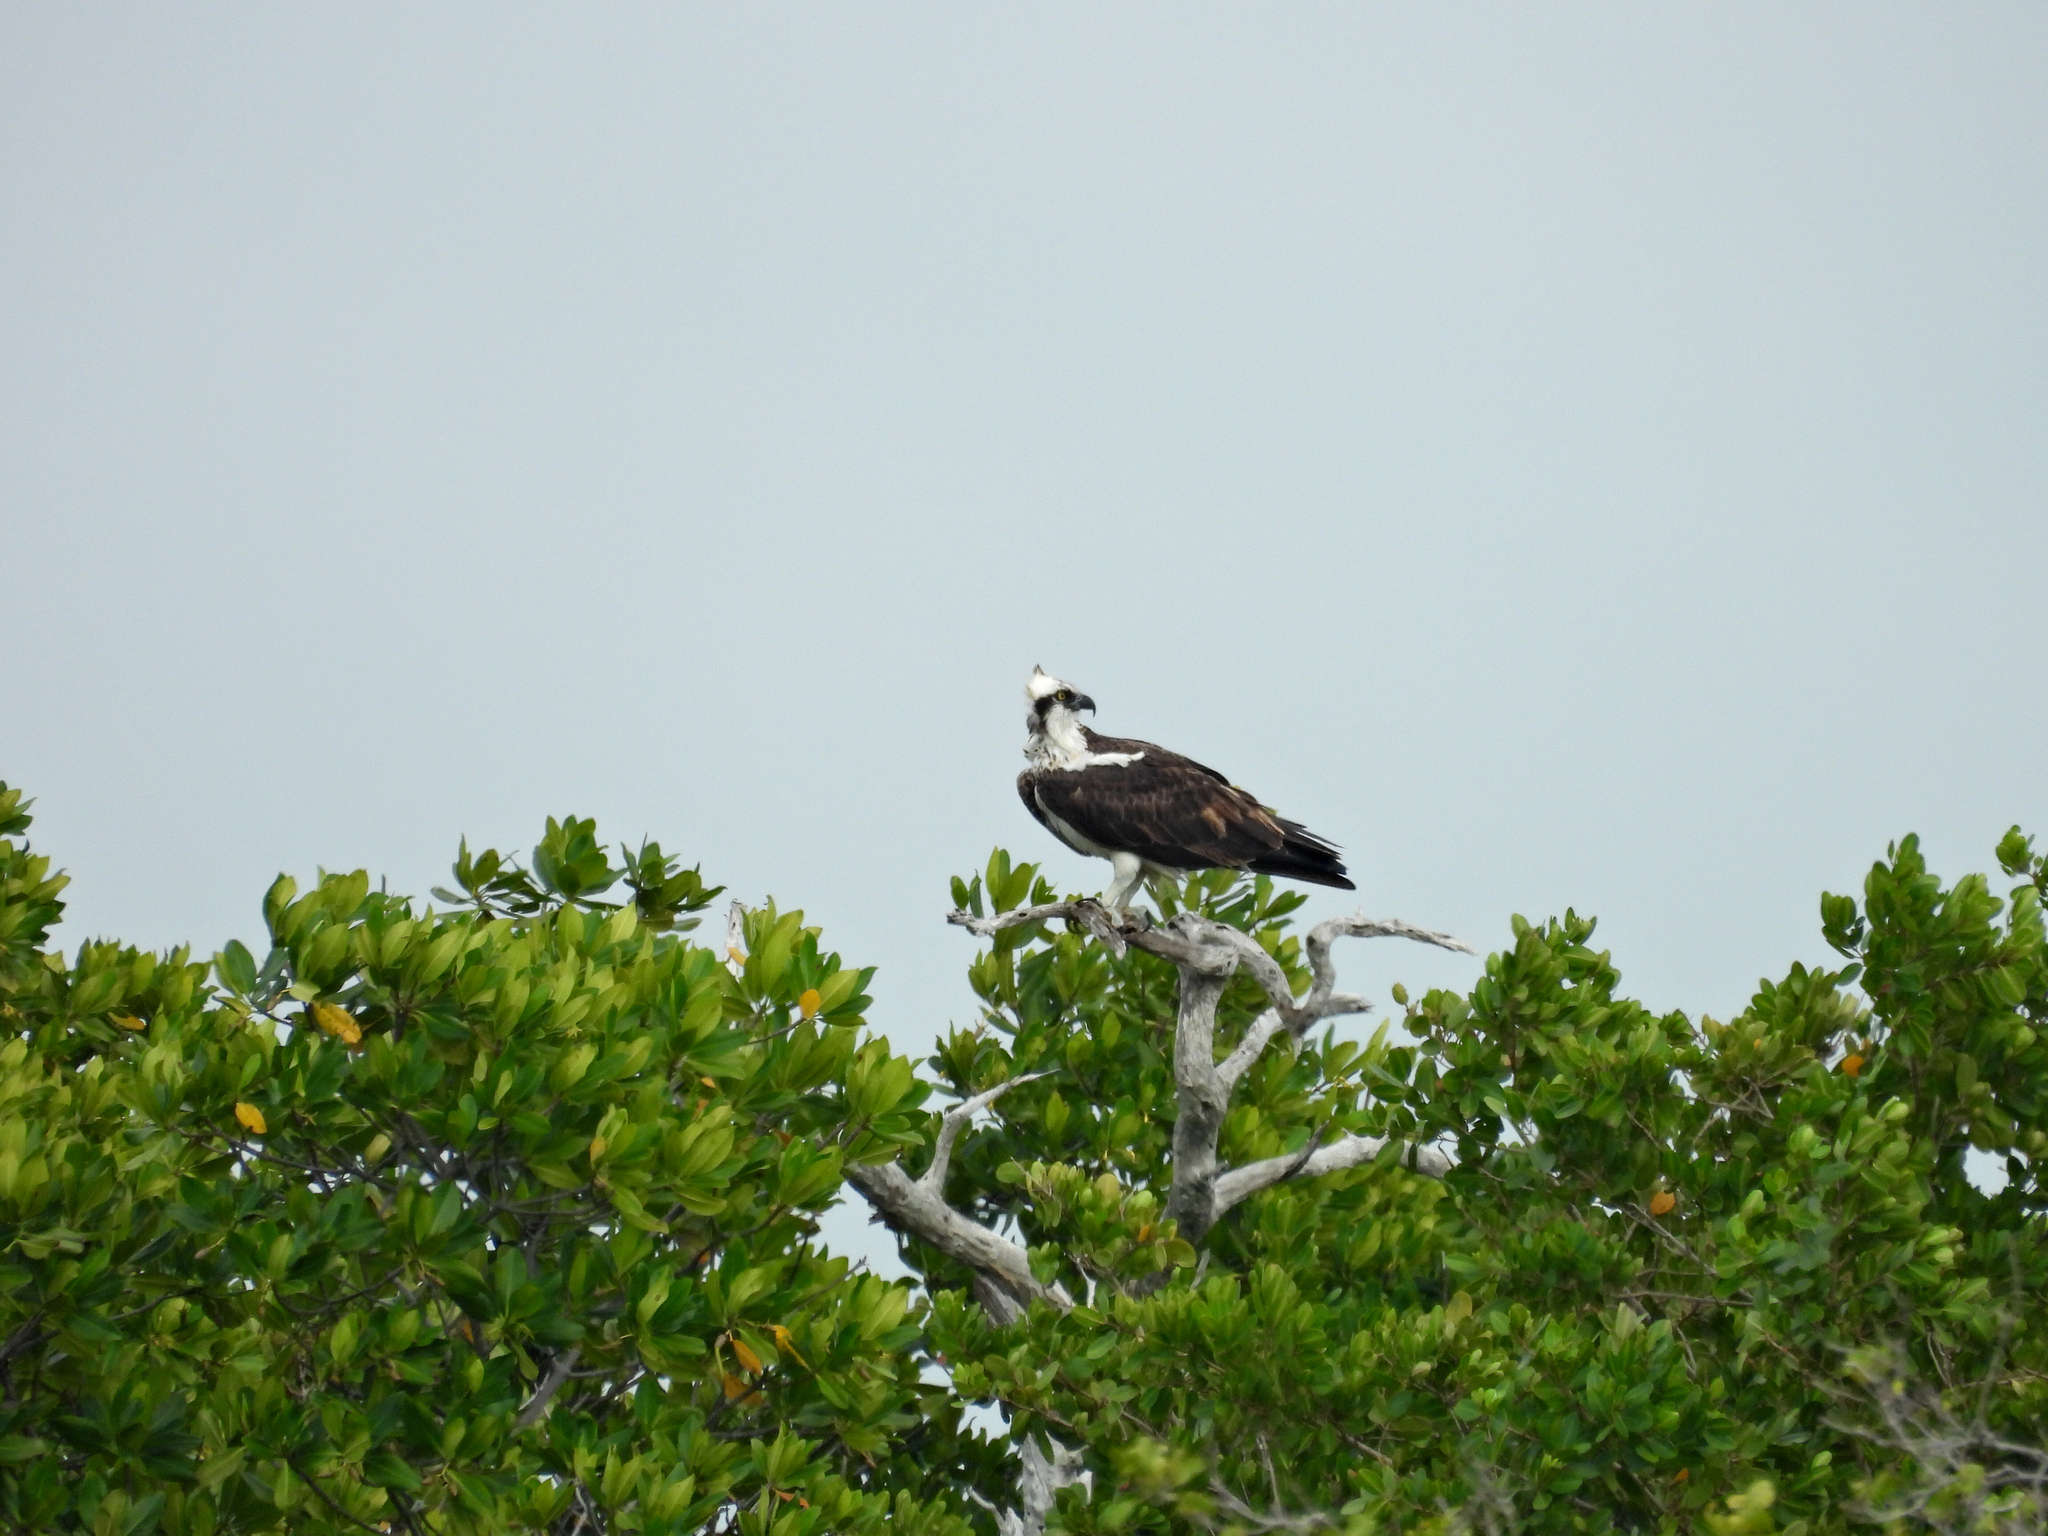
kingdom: Animalia
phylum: Chordata
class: Aves
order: Accipitriformes
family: Pandionidae
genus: Pandion
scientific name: Pandion haliaetus
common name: Osprey
